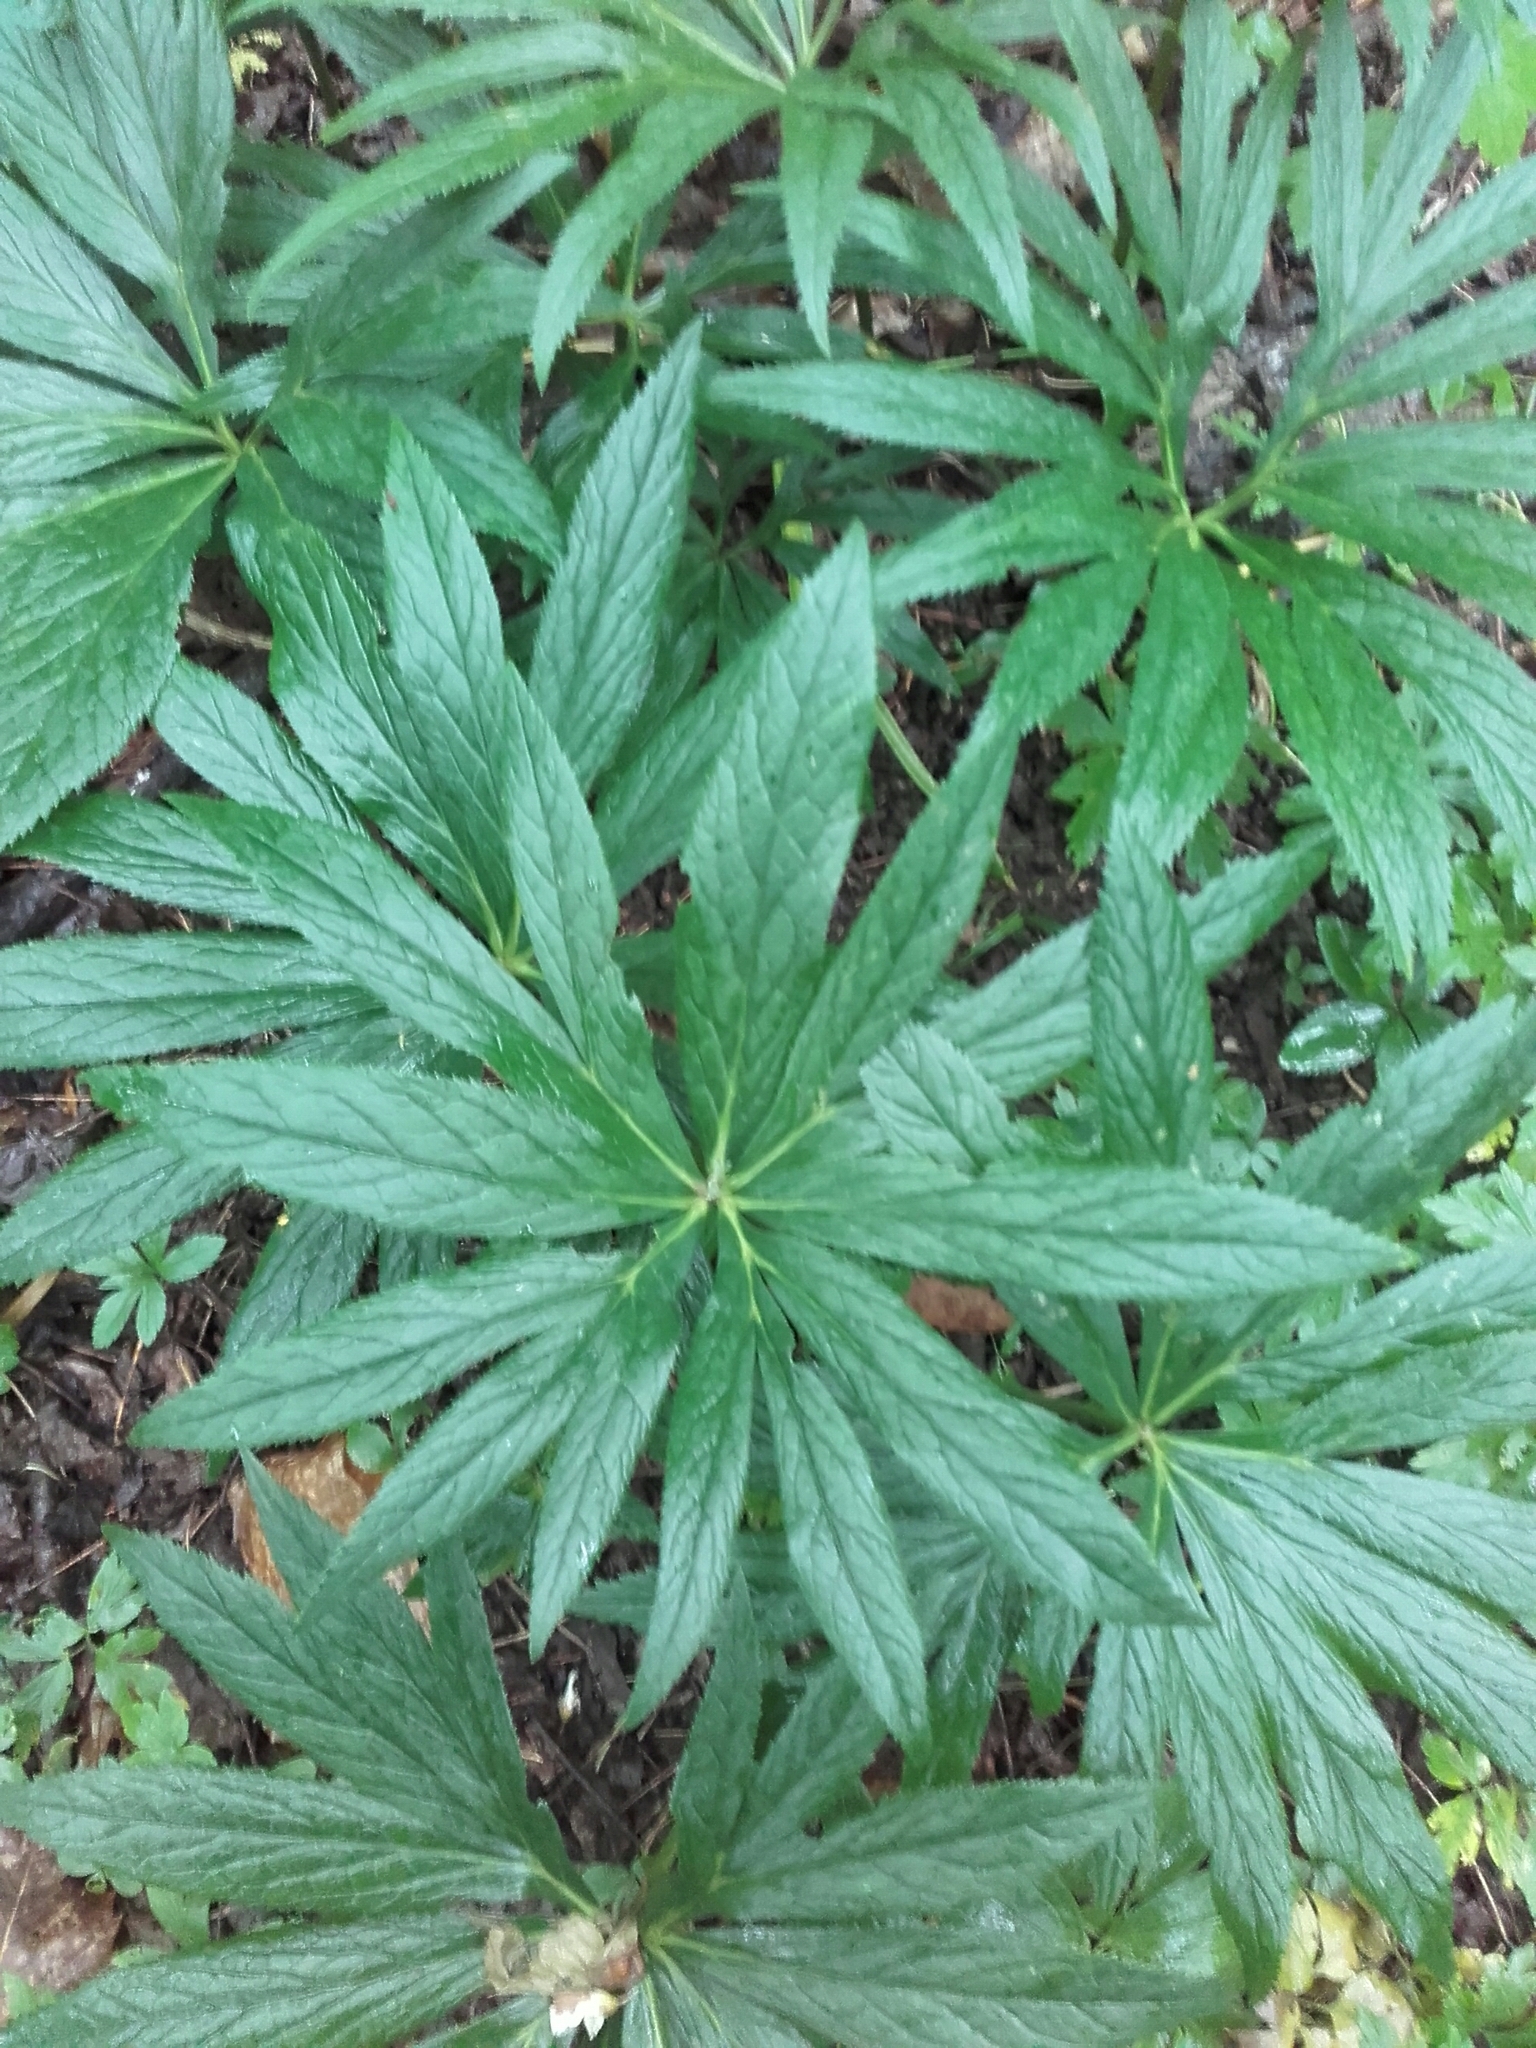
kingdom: Plantae
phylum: Tracheophyta
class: Magnoliopsida
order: Ranunculales
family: Ranunculaceae
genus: Helleborus
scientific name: Helleborus viridis
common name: Green hellebore
